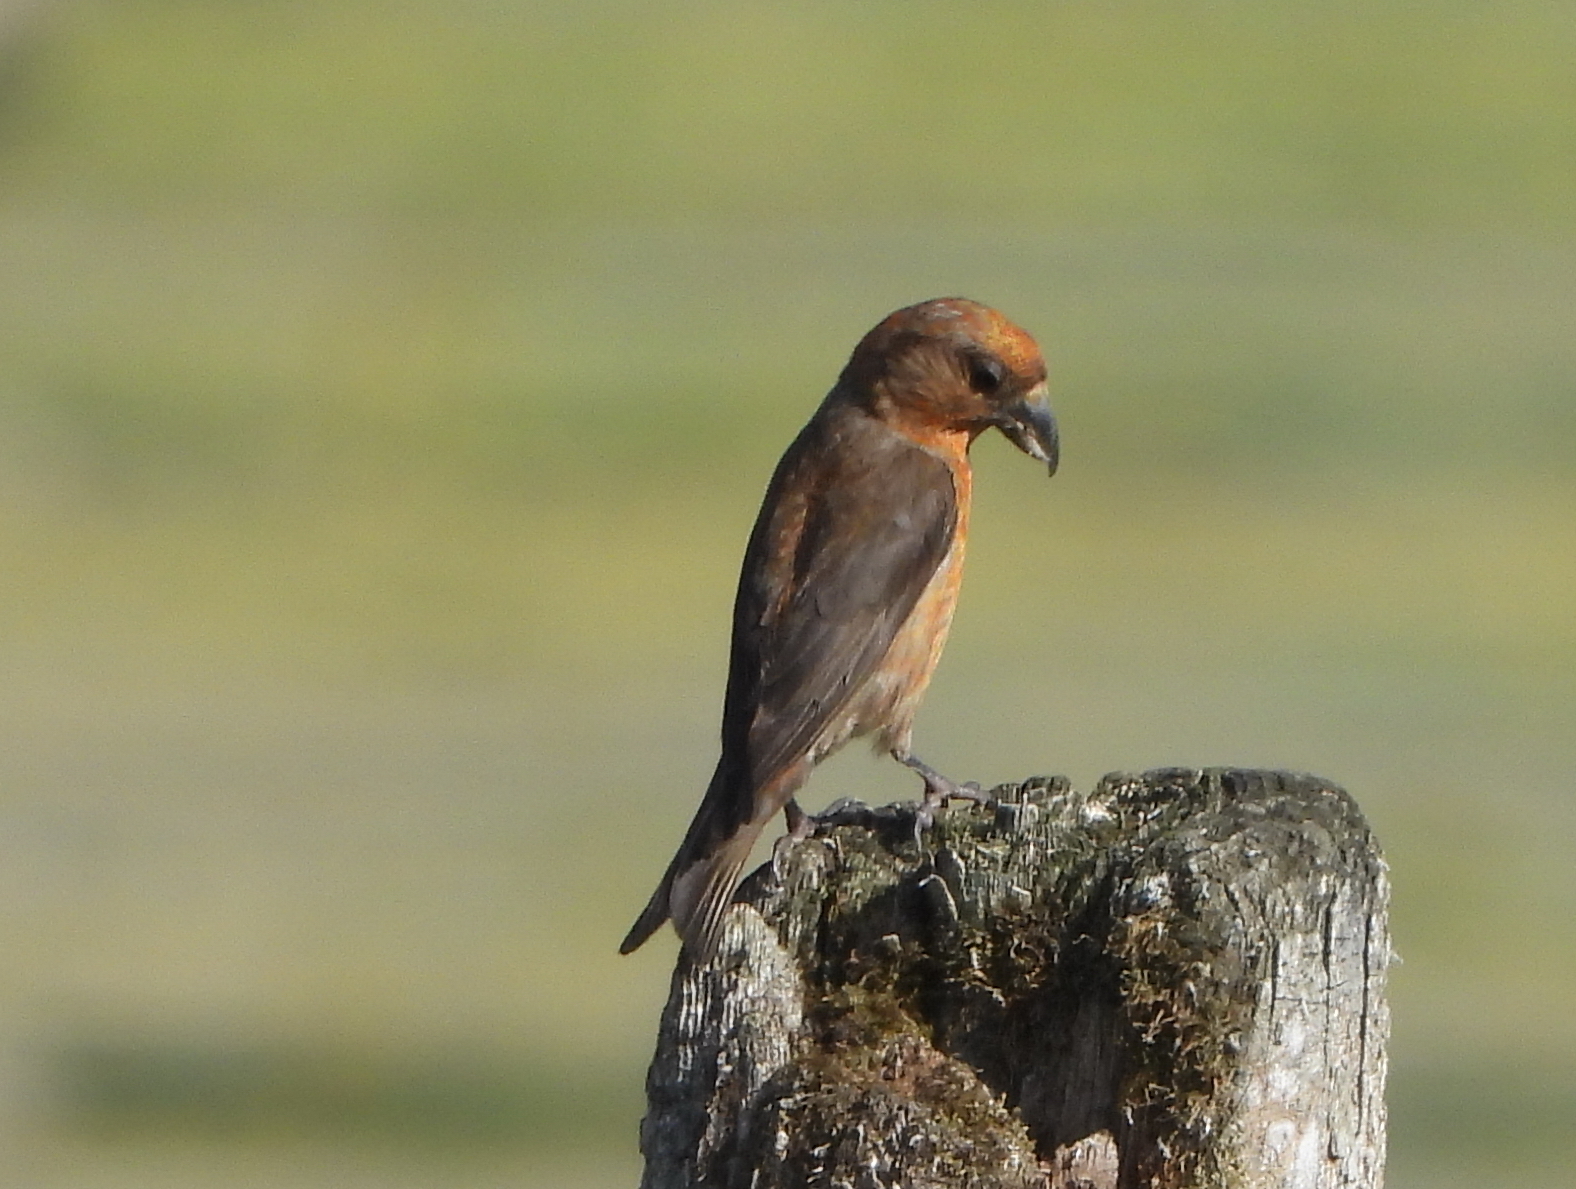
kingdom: Animalia
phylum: Chordata
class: Aves
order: Passeriformes
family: Fringillidae
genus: Loxia
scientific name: Loxia curvirostra
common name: Red crossbill
